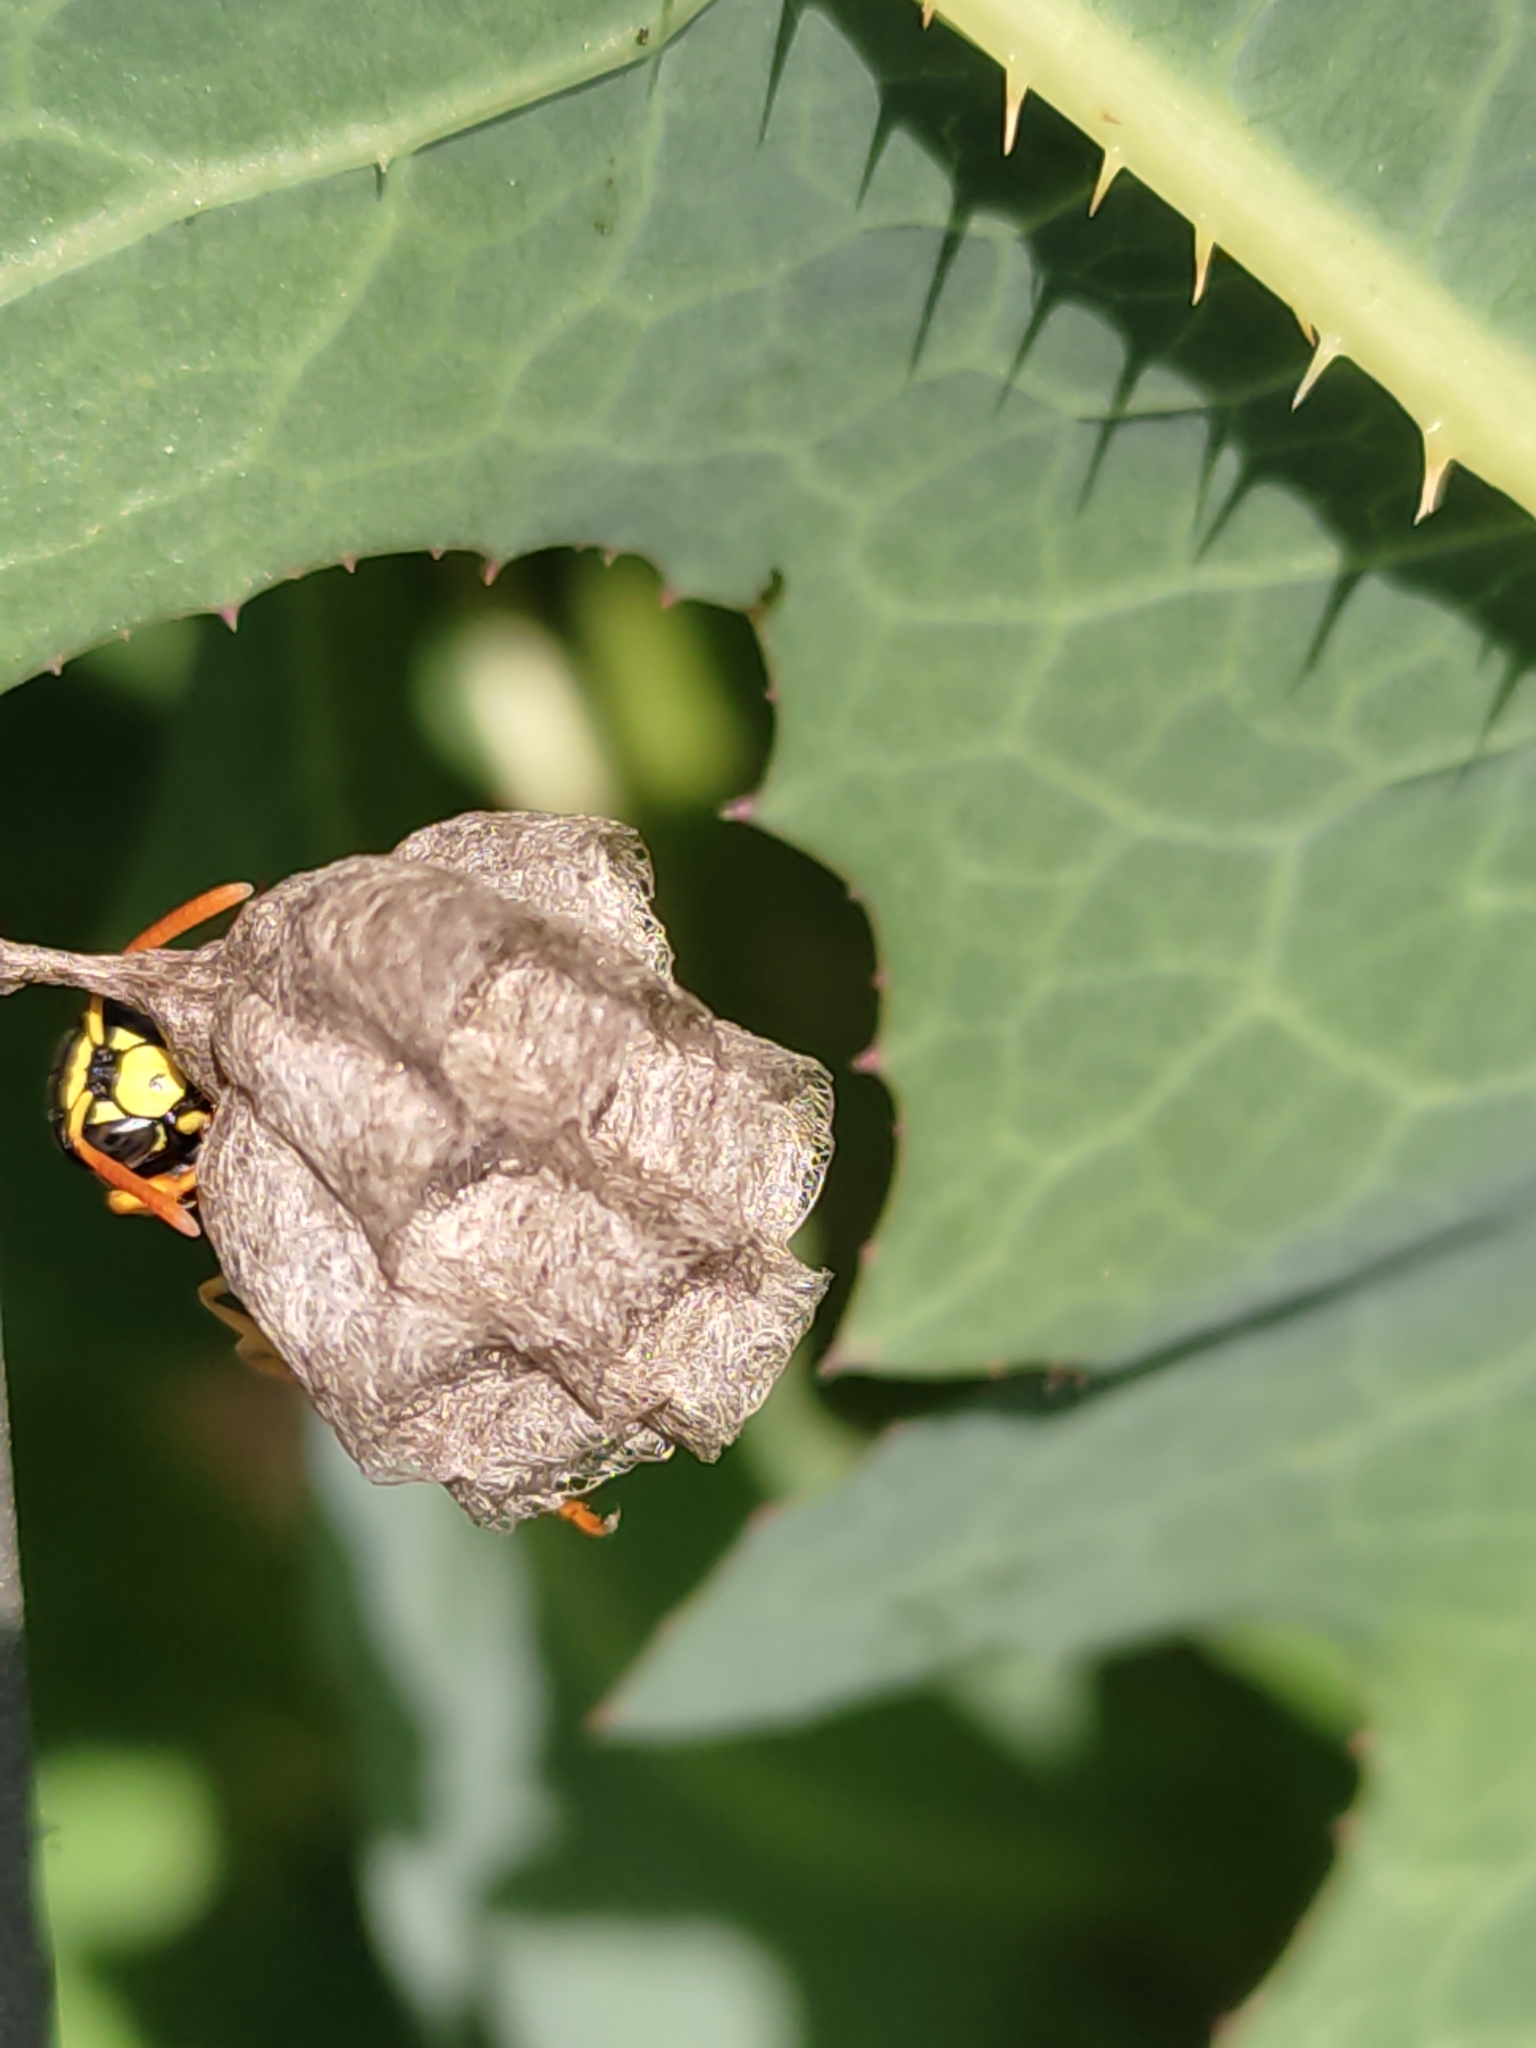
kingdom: Animalia
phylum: Arthropoda
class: Insecta
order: Hymenoptera
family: Eumenidae
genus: Polistes
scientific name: Polistes gallicus
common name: Paper wasp
